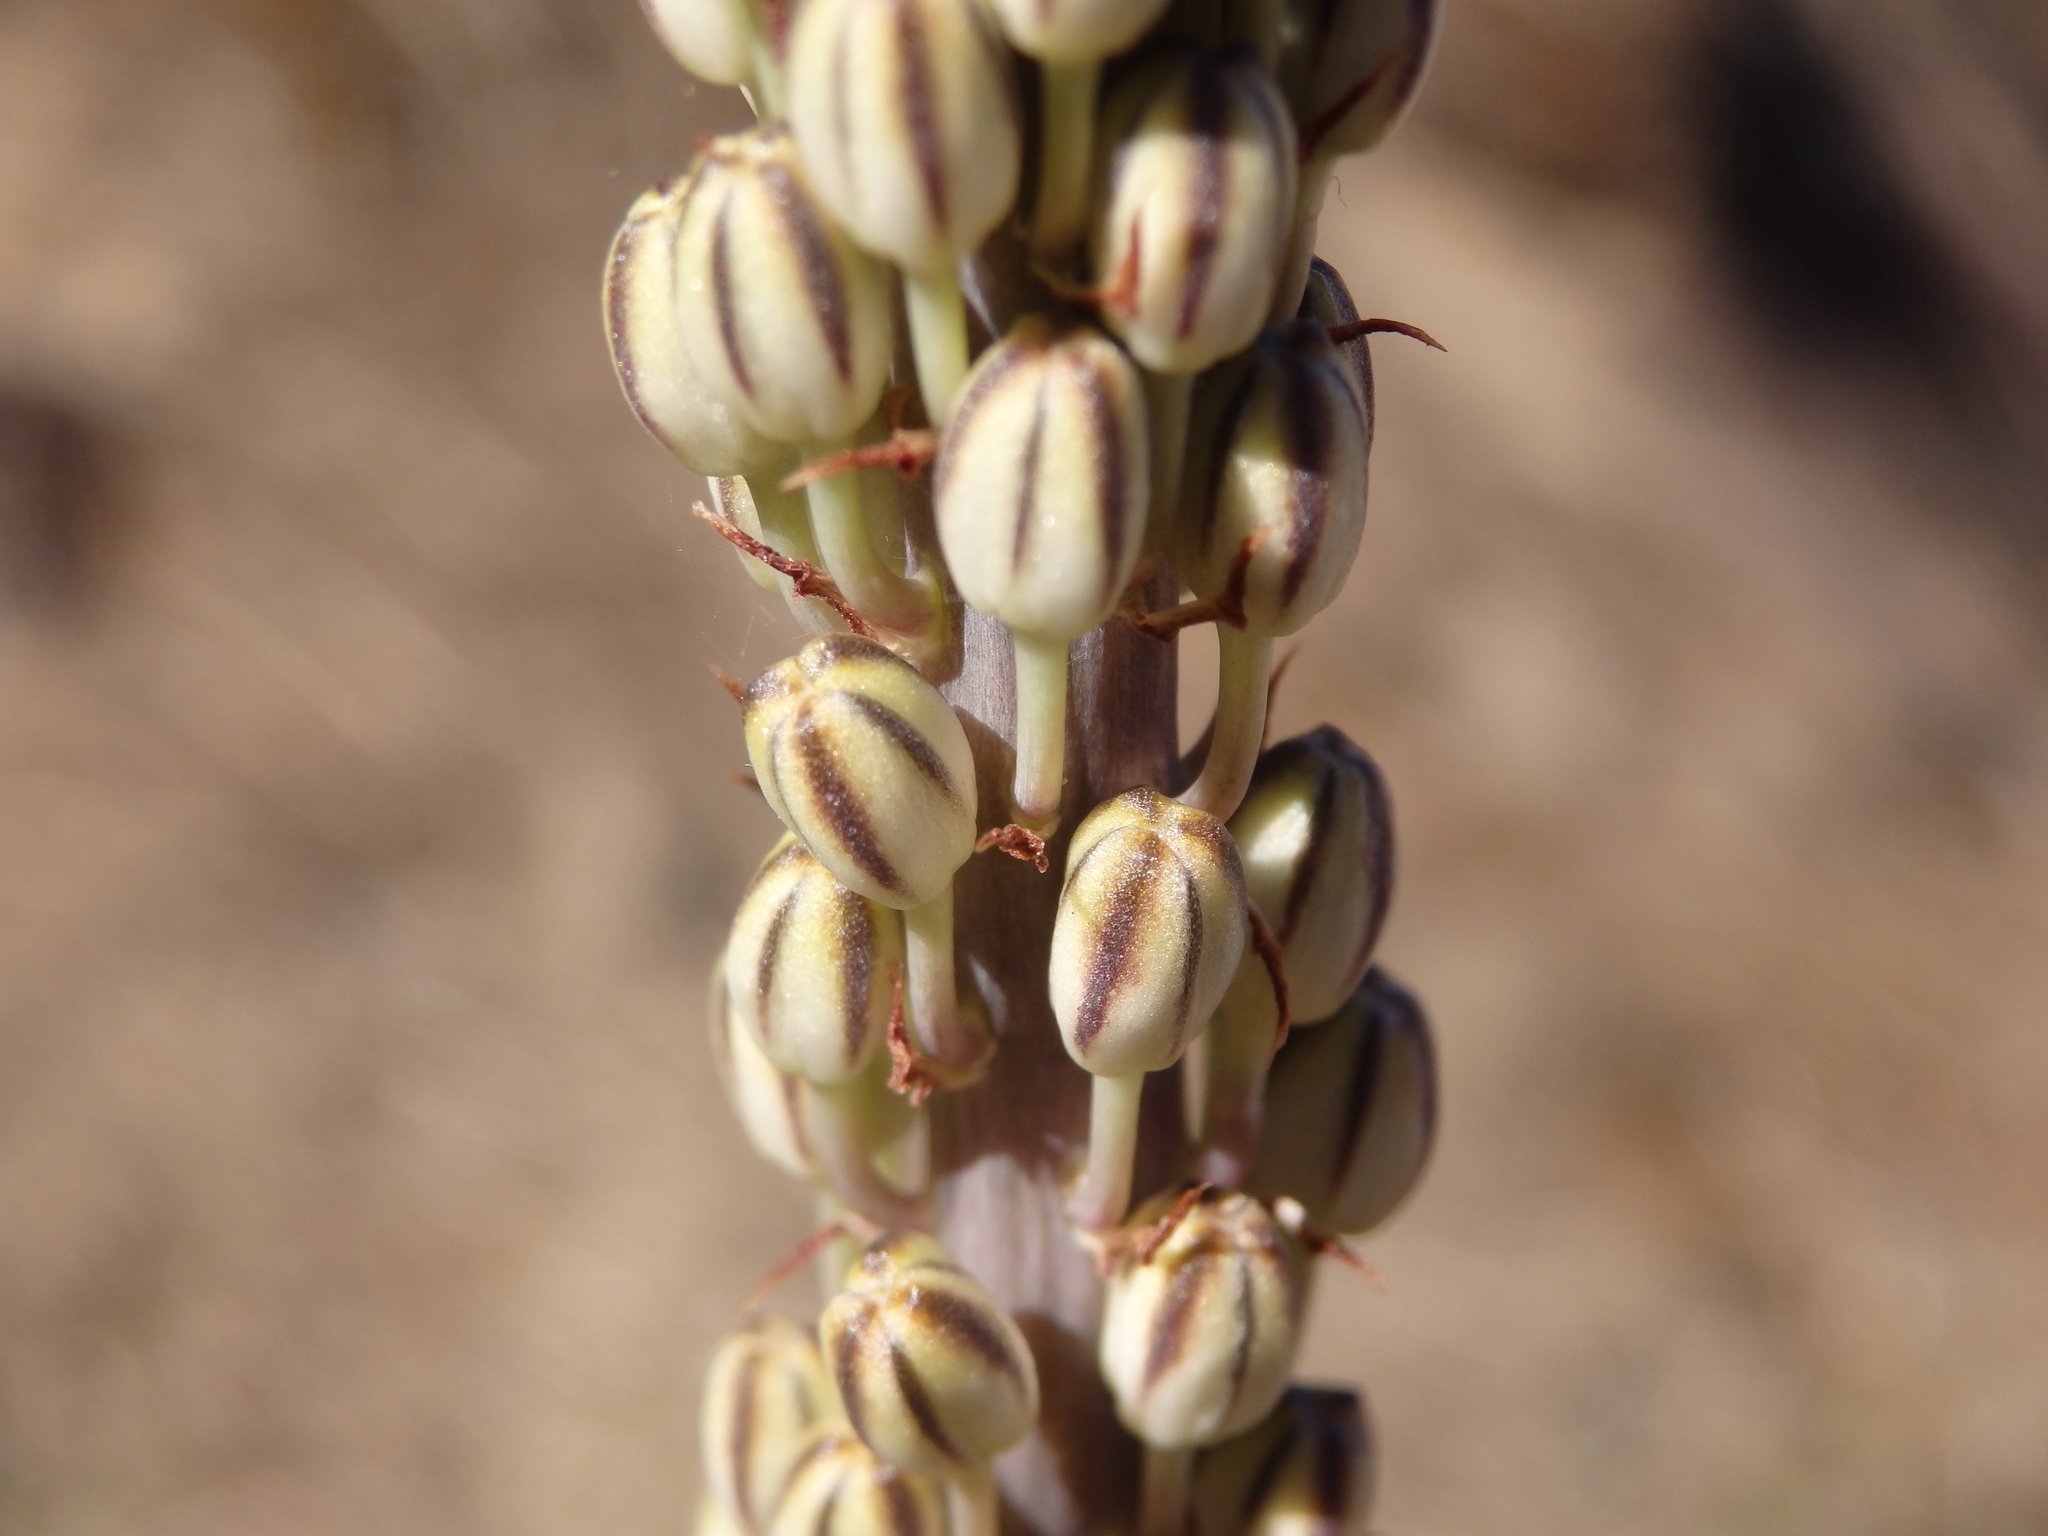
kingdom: Plantae
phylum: Tracheophyta
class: Liliopsida
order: Asparagales
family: Asparagaceae
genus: Drimia
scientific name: Drimia maritima
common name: Maritime squill
